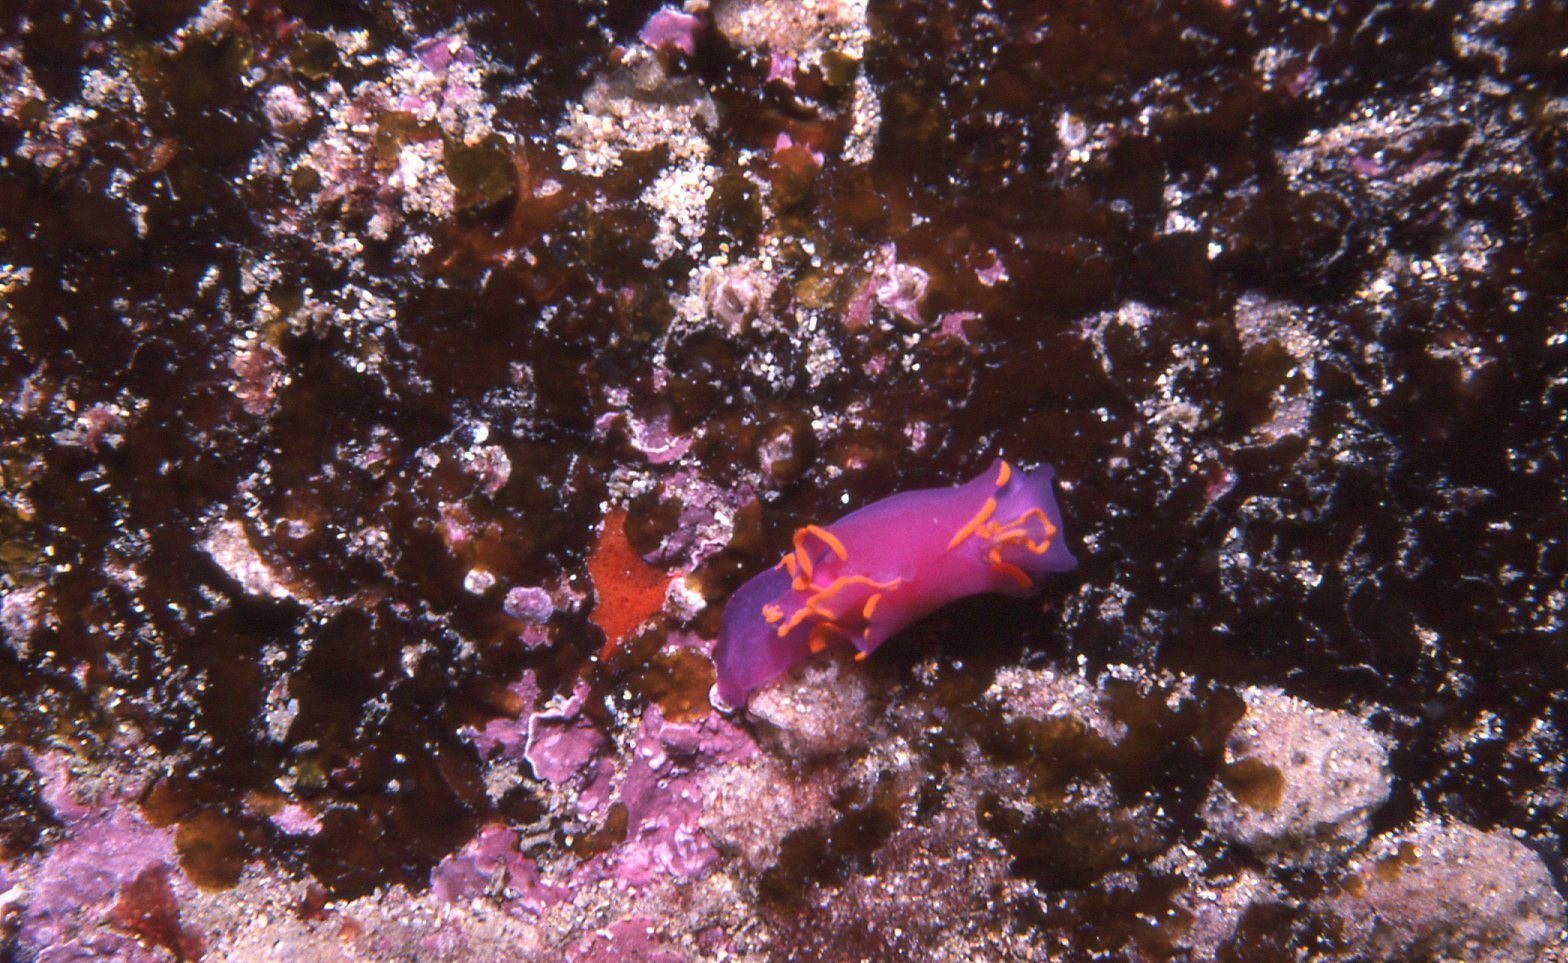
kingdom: Animalia
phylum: Mollusca
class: Gastropoda
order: Cephalaspidea
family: Gastropteridae
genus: Sagaminopteron
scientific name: Sagaminopteron ornatum
